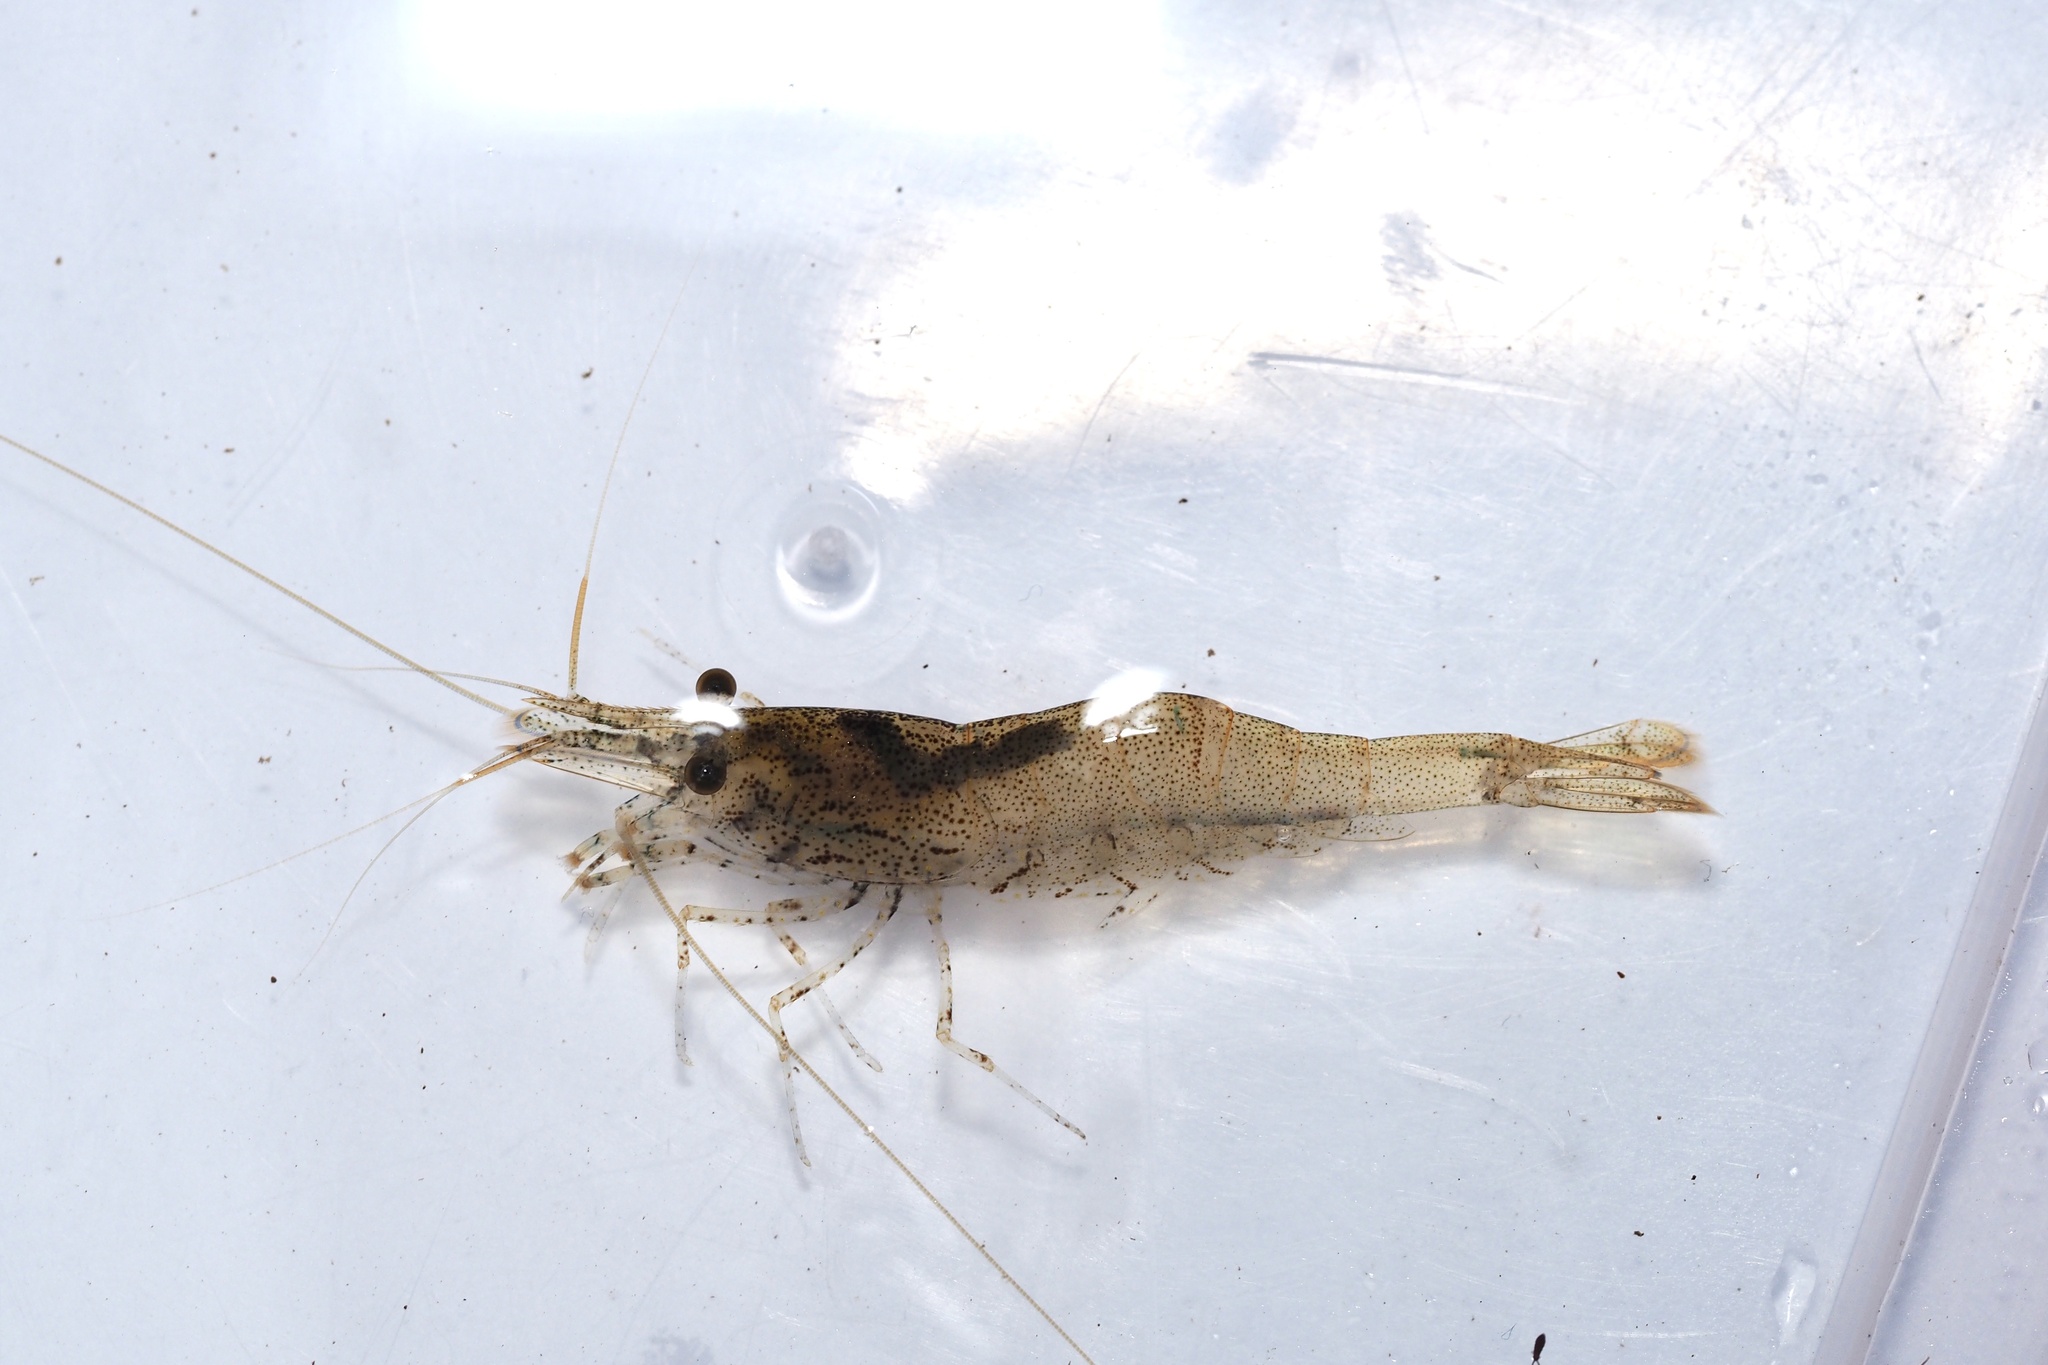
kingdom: Animalia
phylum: Arthropoda
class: Malacostraca
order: Decapoda
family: Atyidae
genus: Paratya
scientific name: Paratya compressa
